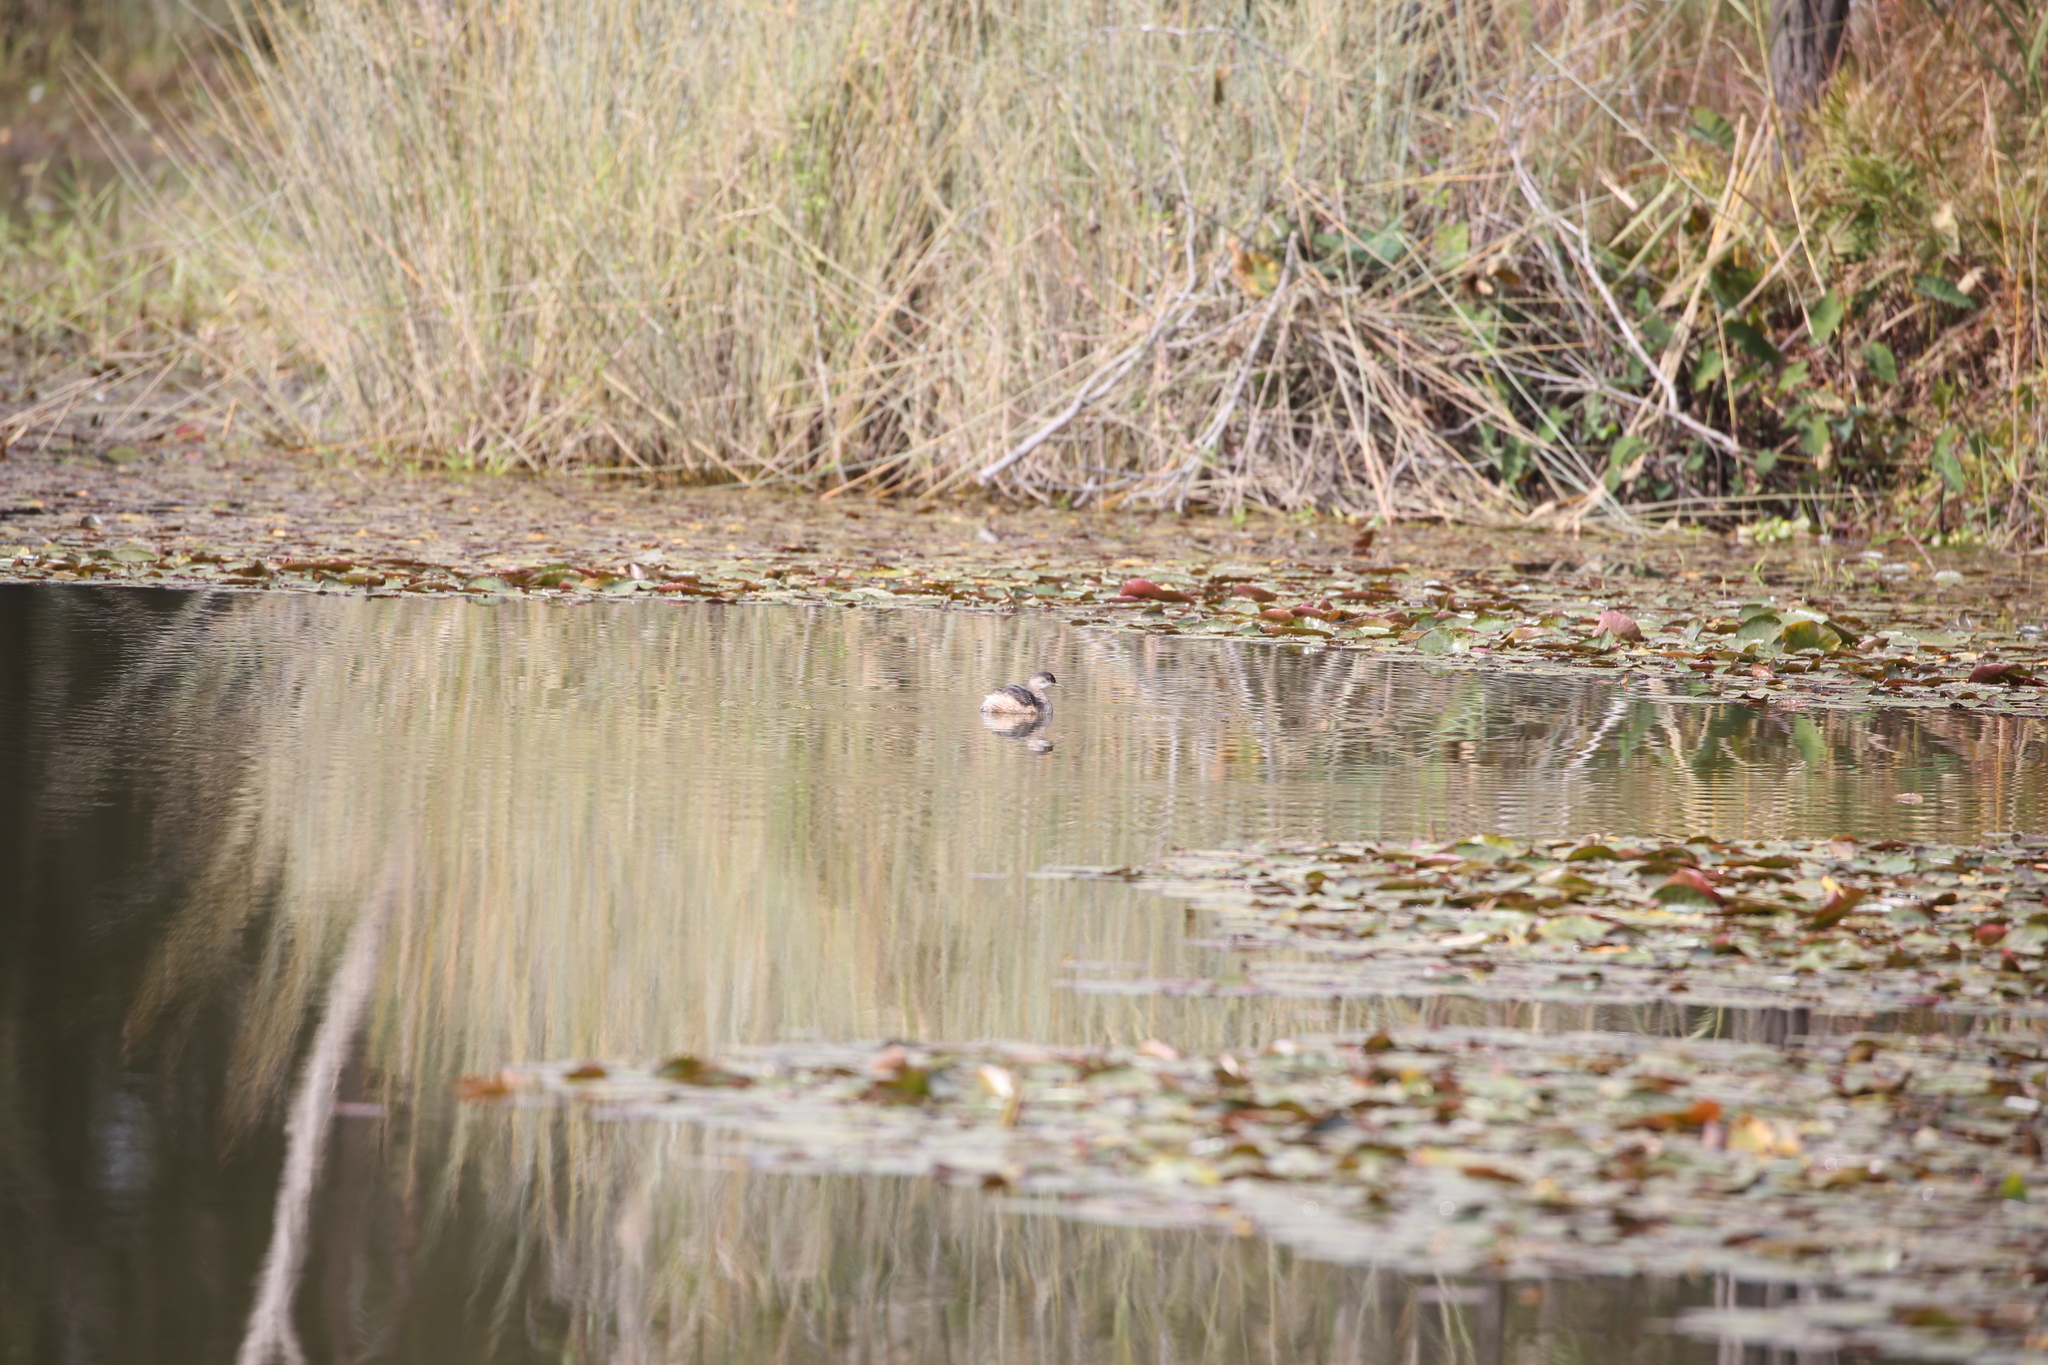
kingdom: Animalia
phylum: Chordata
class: Aves
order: Podicipediformes
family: Podicipedidae
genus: Tachybaptus
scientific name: Tachybaptus novaehollandiae
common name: Australasian grebe
